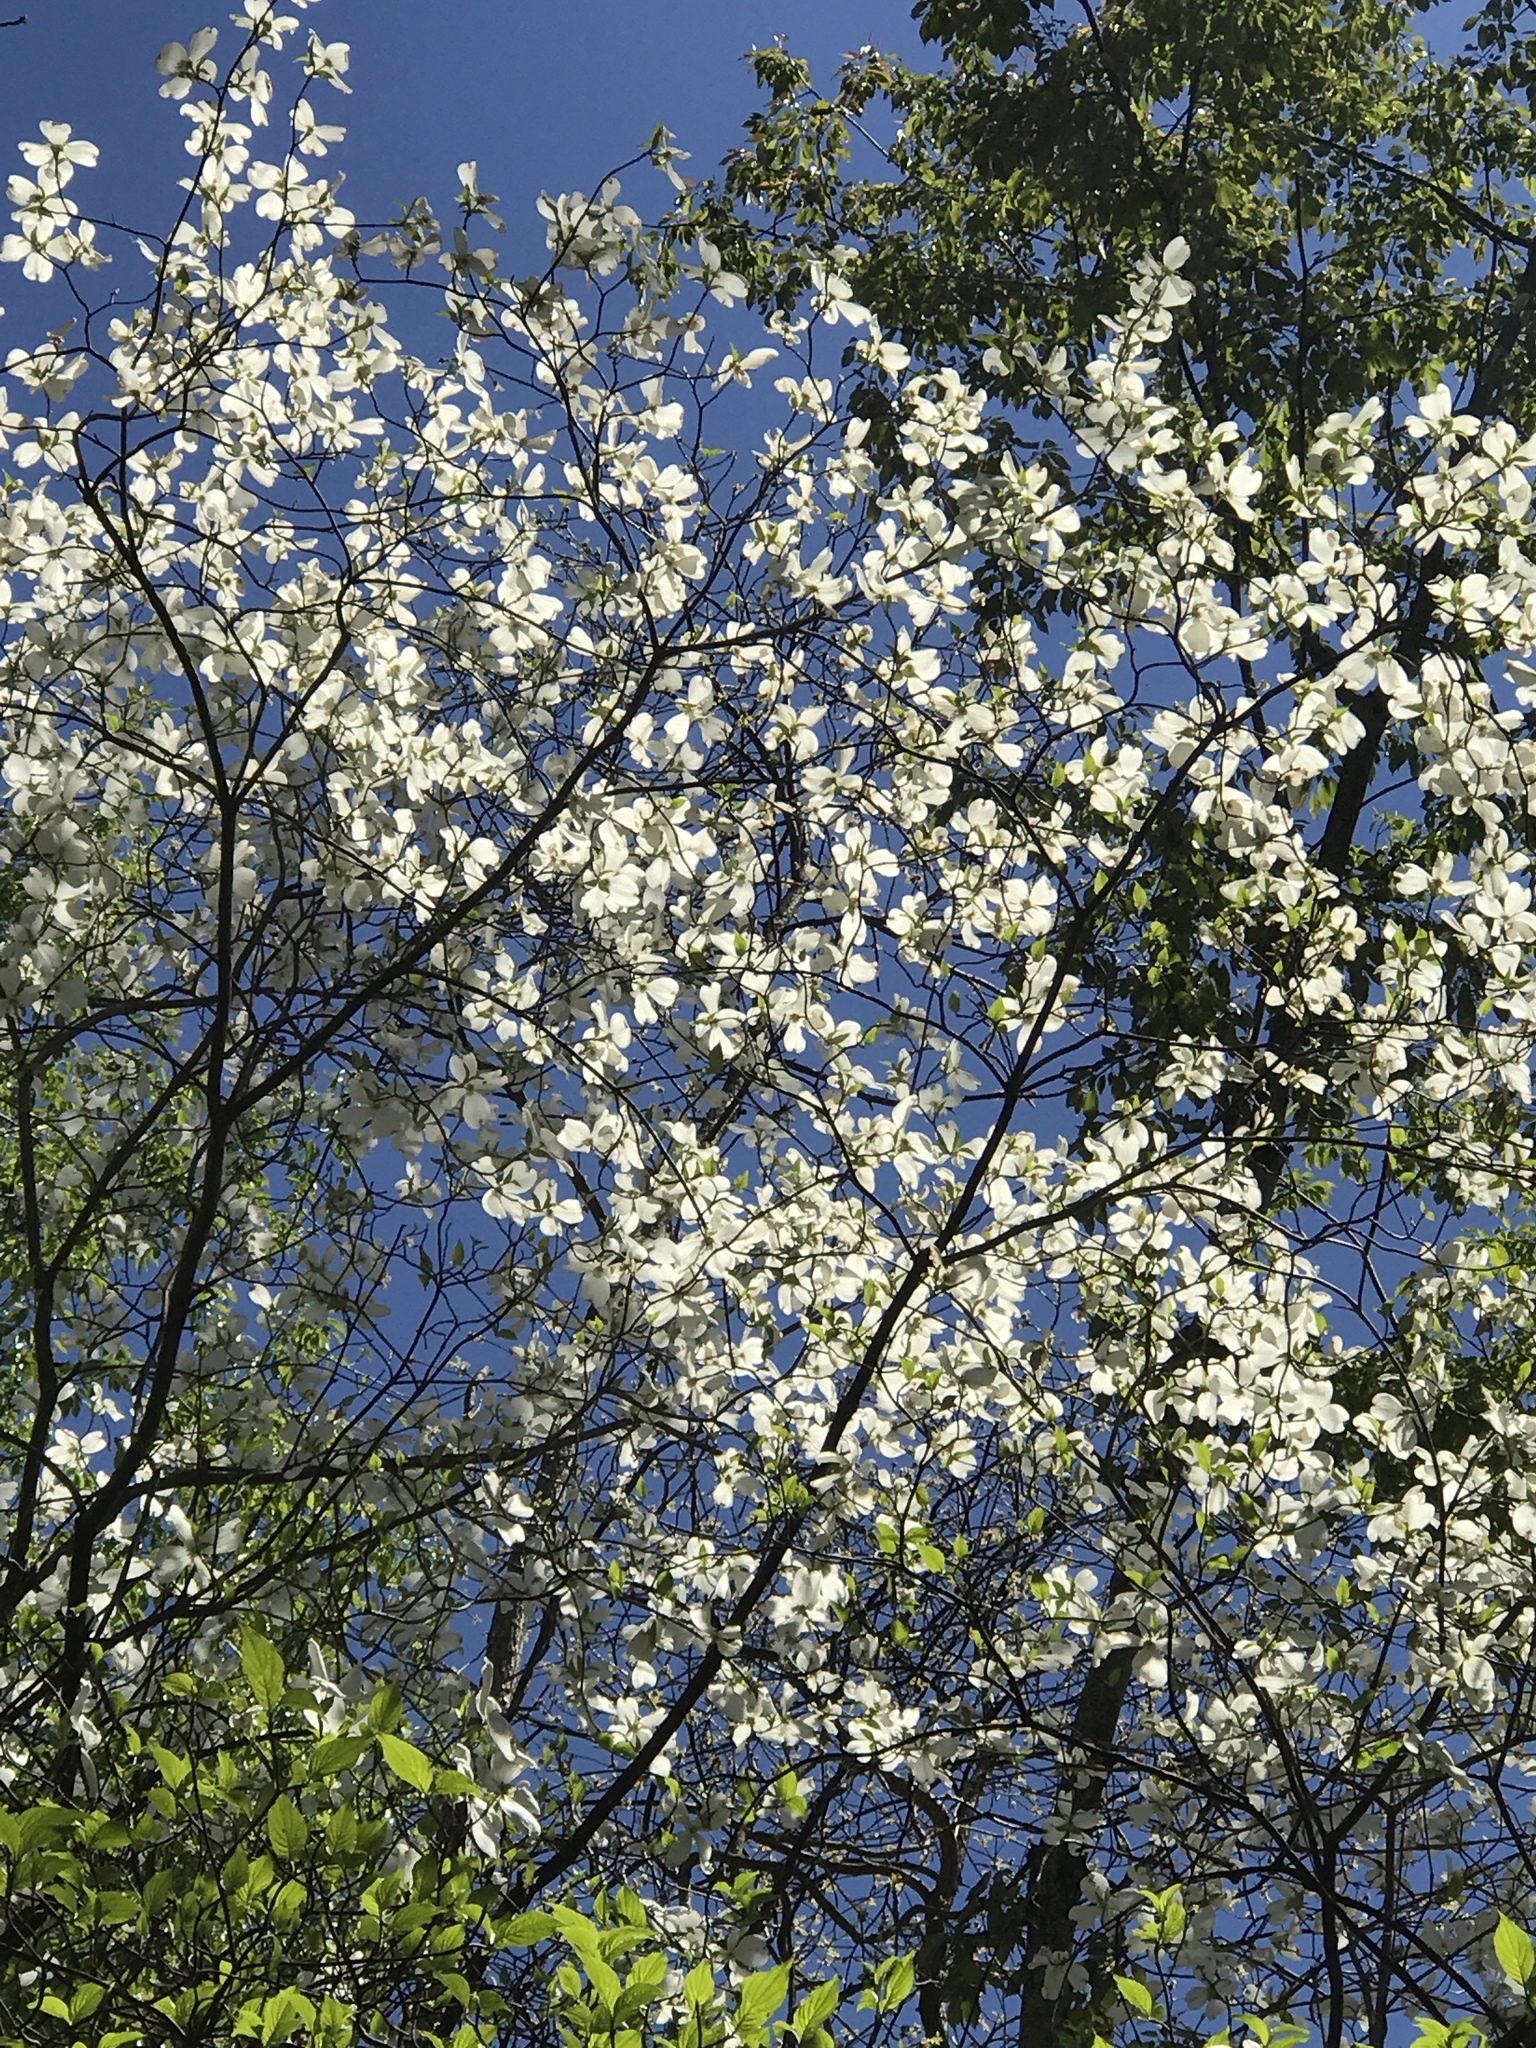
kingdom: Plantae
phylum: Tracheophyta
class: Magnoliopsida
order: Cornales
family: Cornaceae
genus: Cornus
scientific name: Cornus florida
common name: Flowering dogwood
